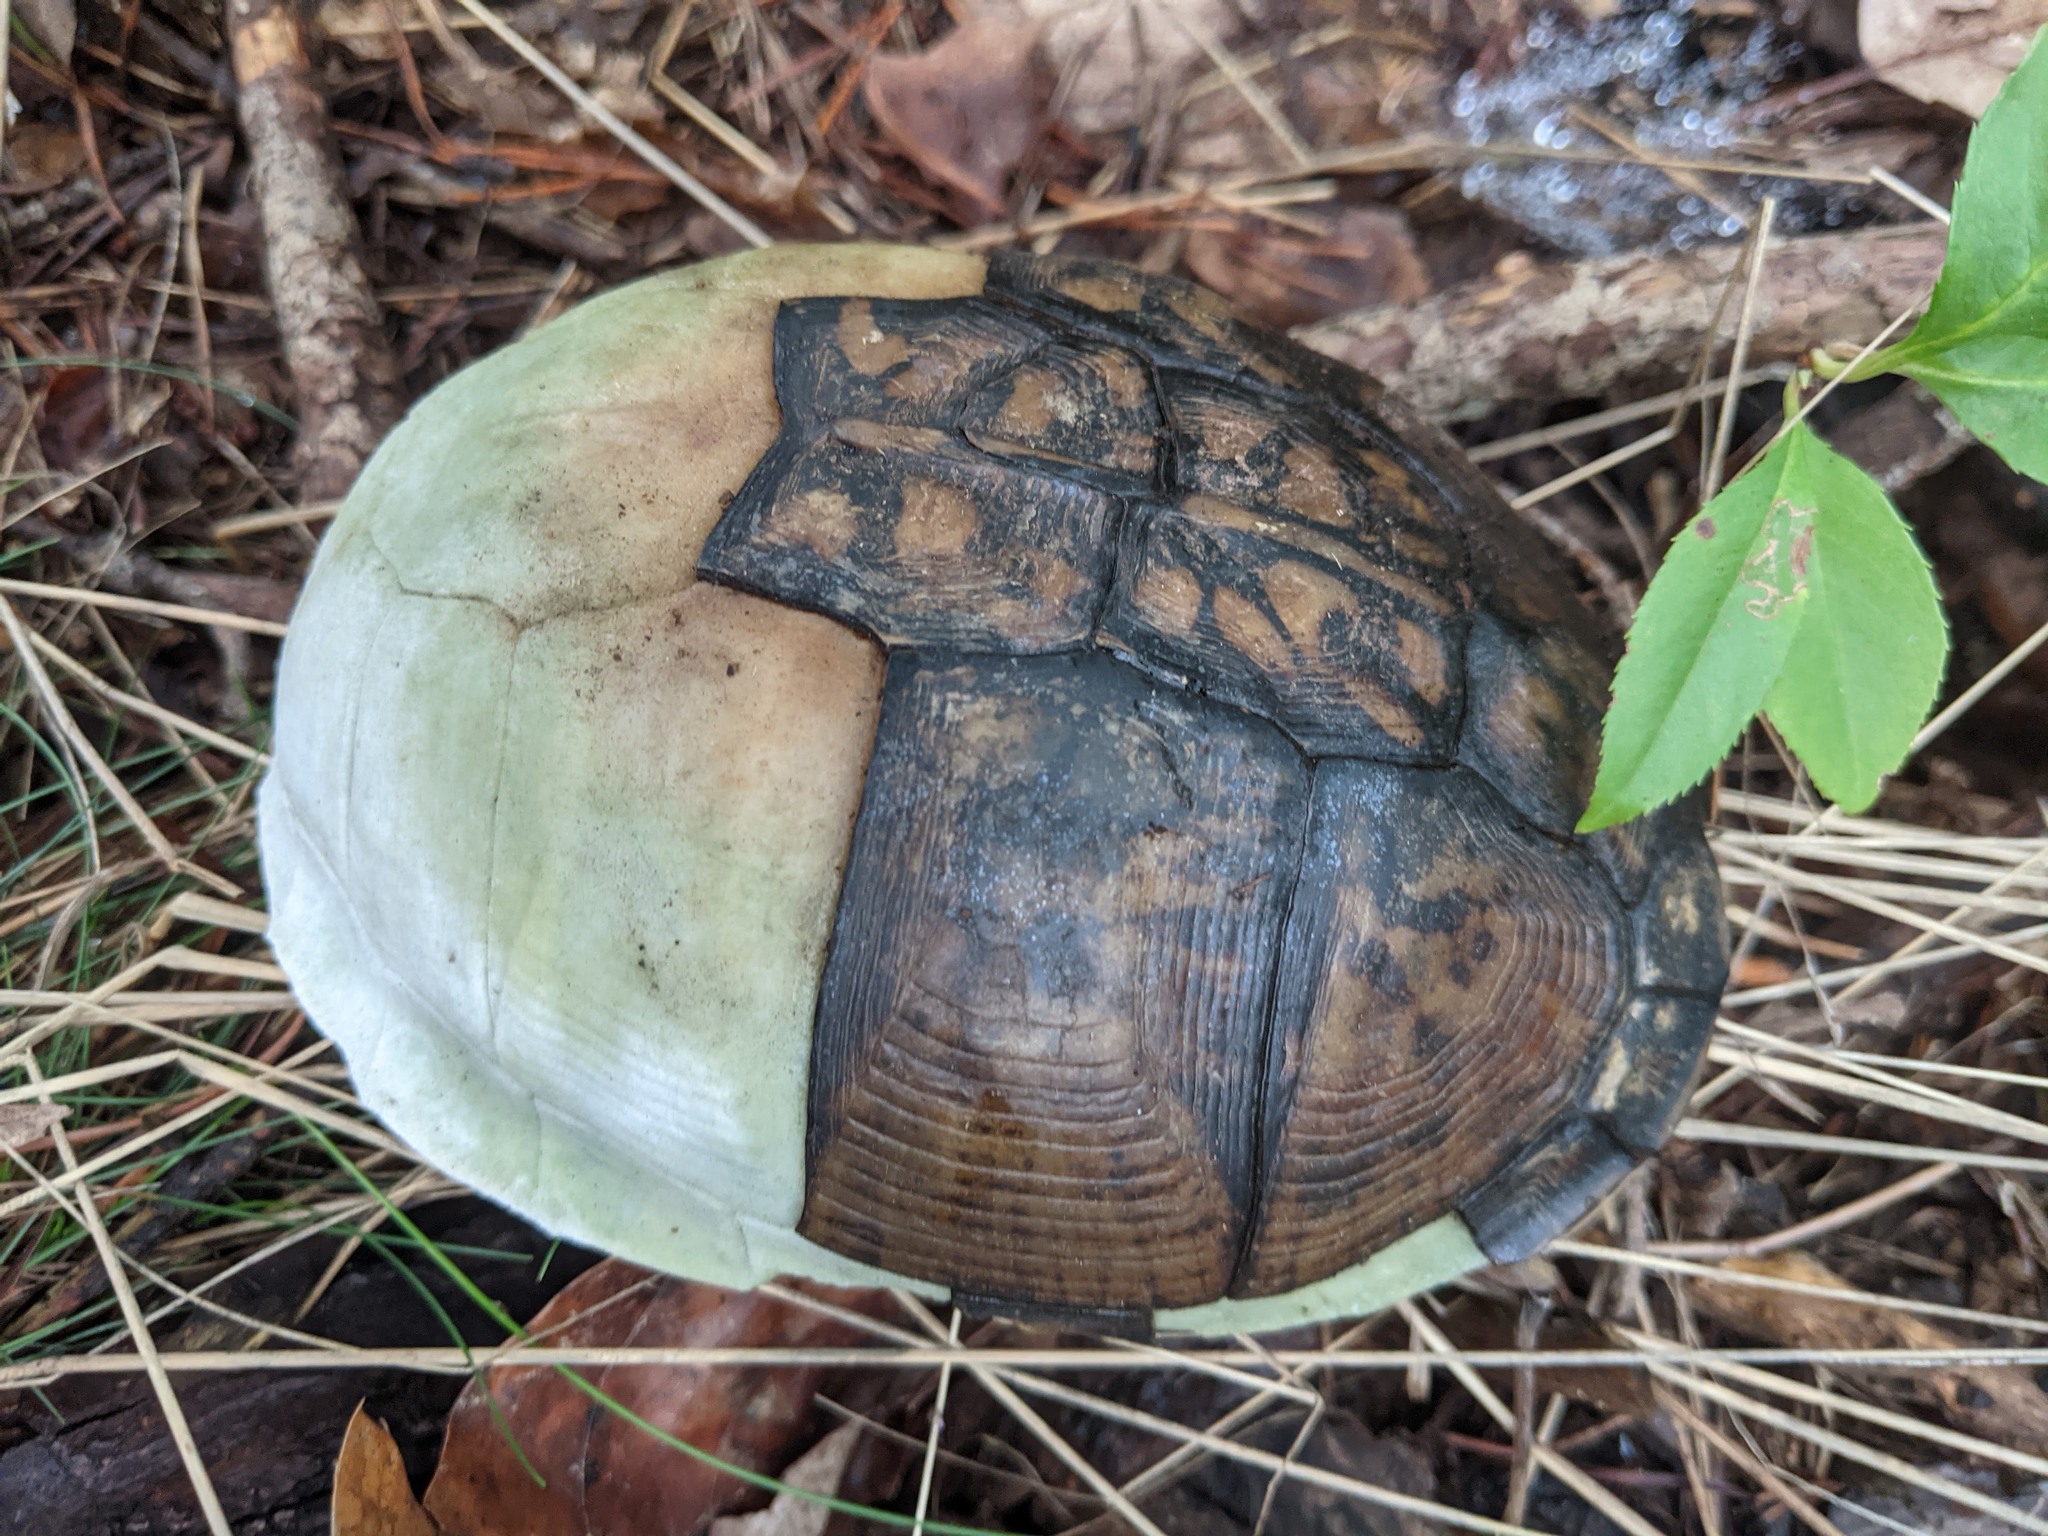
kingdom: Animalia
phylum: Chordata
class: Testudines
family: Emydidae
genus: Terrapene
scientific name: Terrapene carolina
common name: Common box turtle
